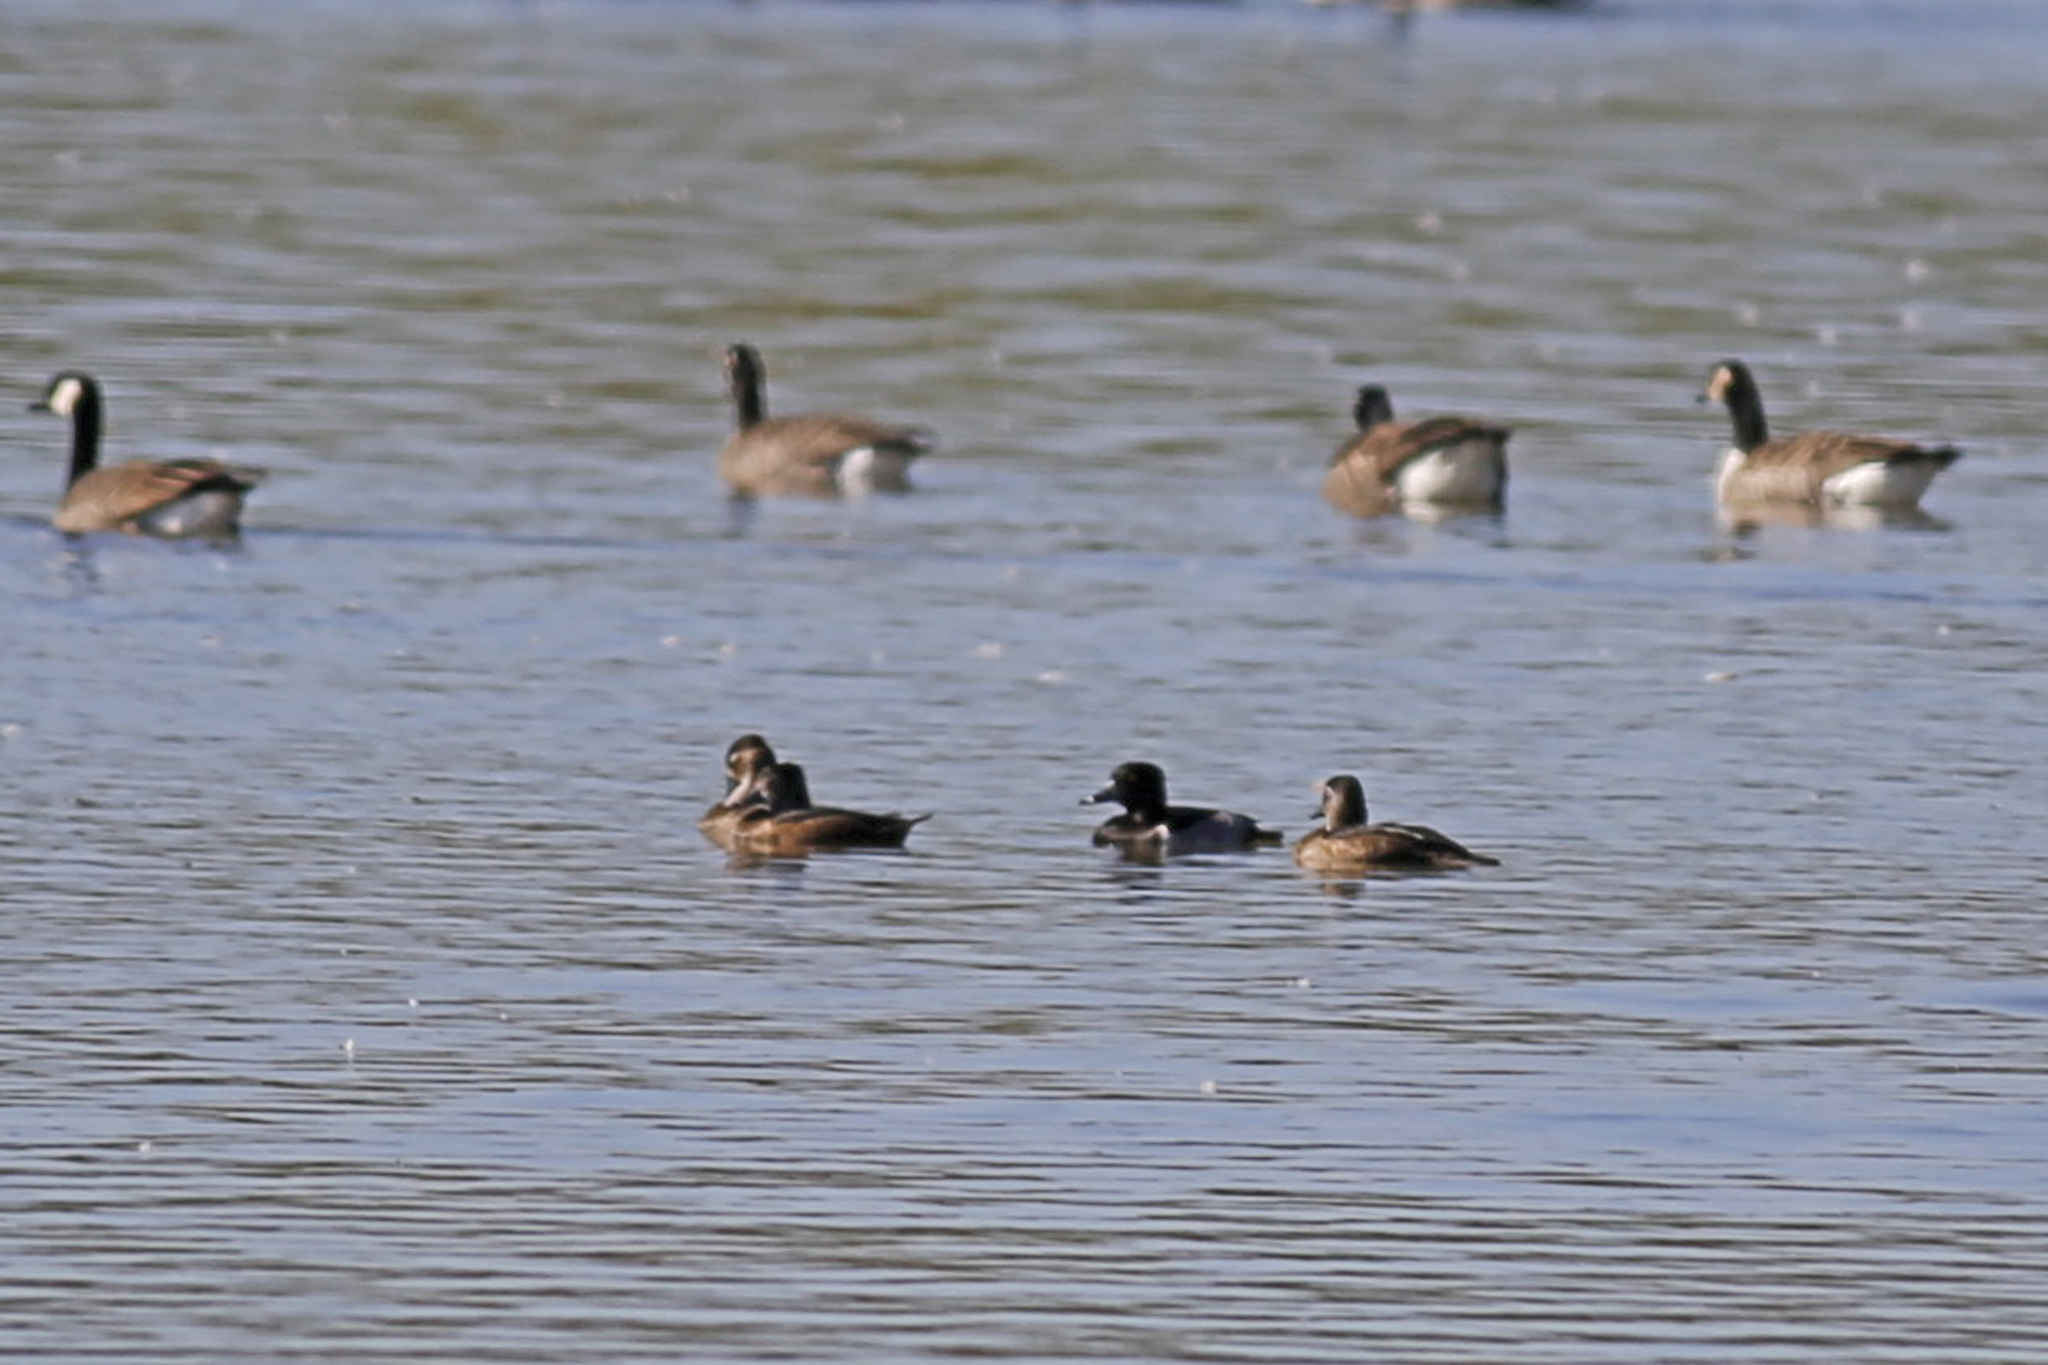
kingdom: Animalia
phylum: Chordata
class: Aves
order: Anseriformes
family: Anatidae
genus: Aythya
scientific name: Aythya collaris
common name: Ring-necked duck
